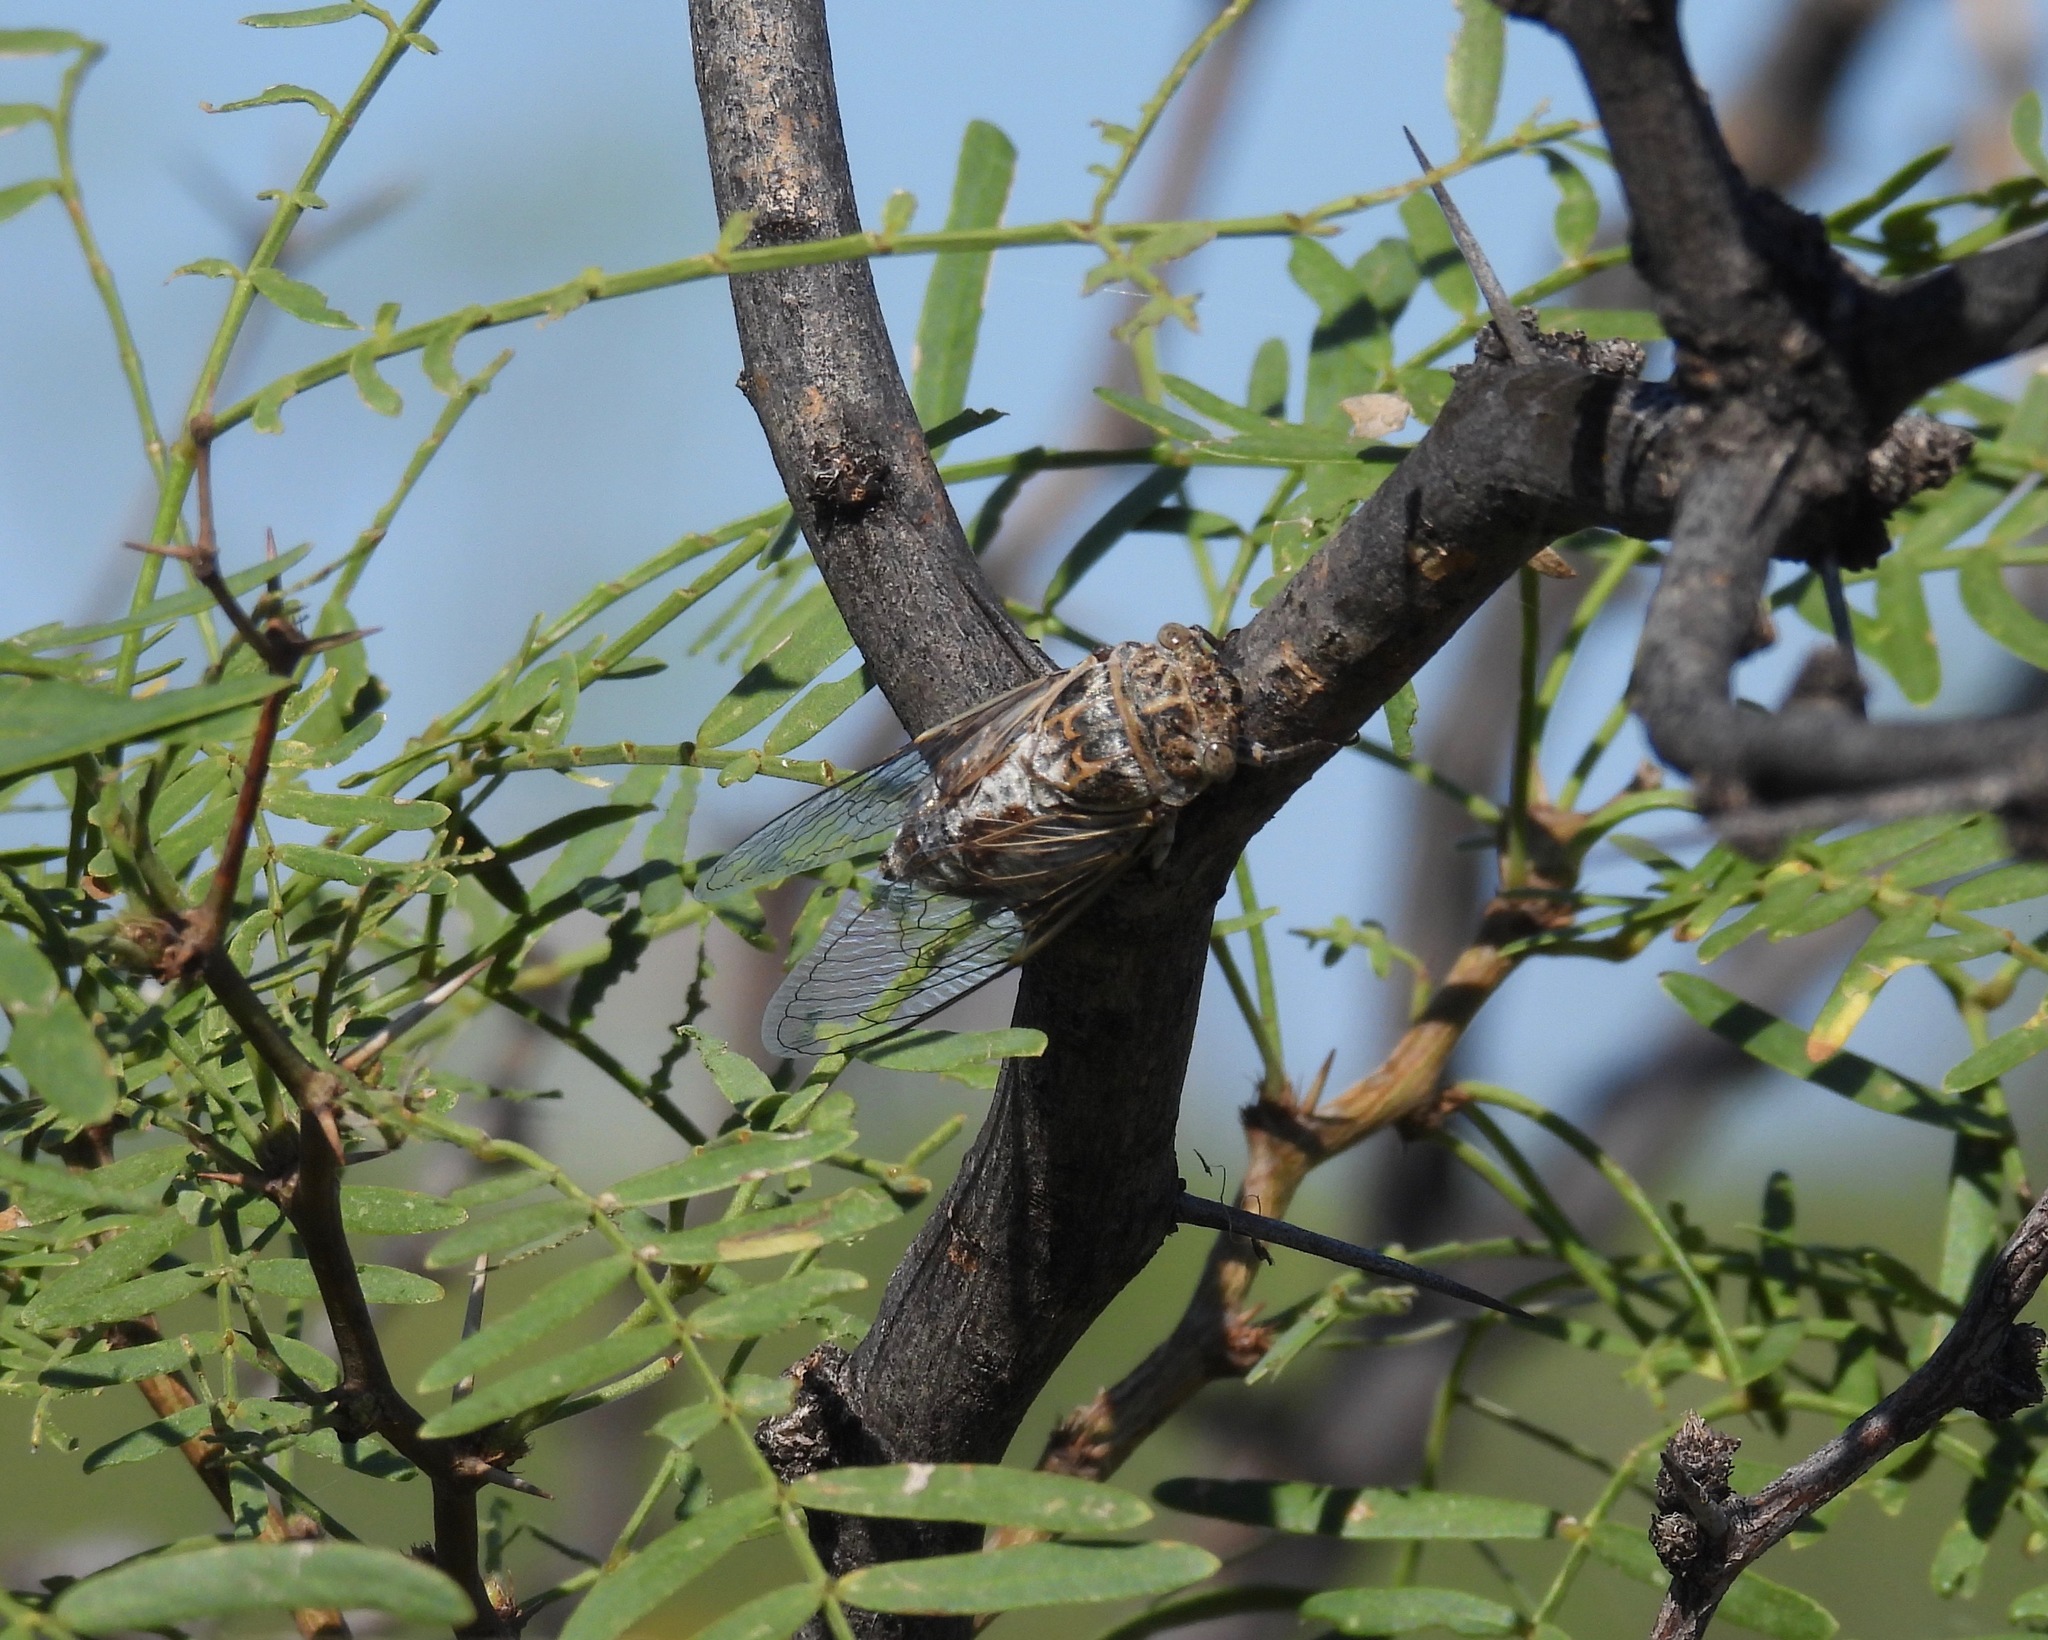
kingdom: Animalia
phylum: Arthropoda
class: Insecta
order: Hemiptera
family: Cicadidae
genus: Diceroprocta
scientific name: Diceroprocta eugraphica
